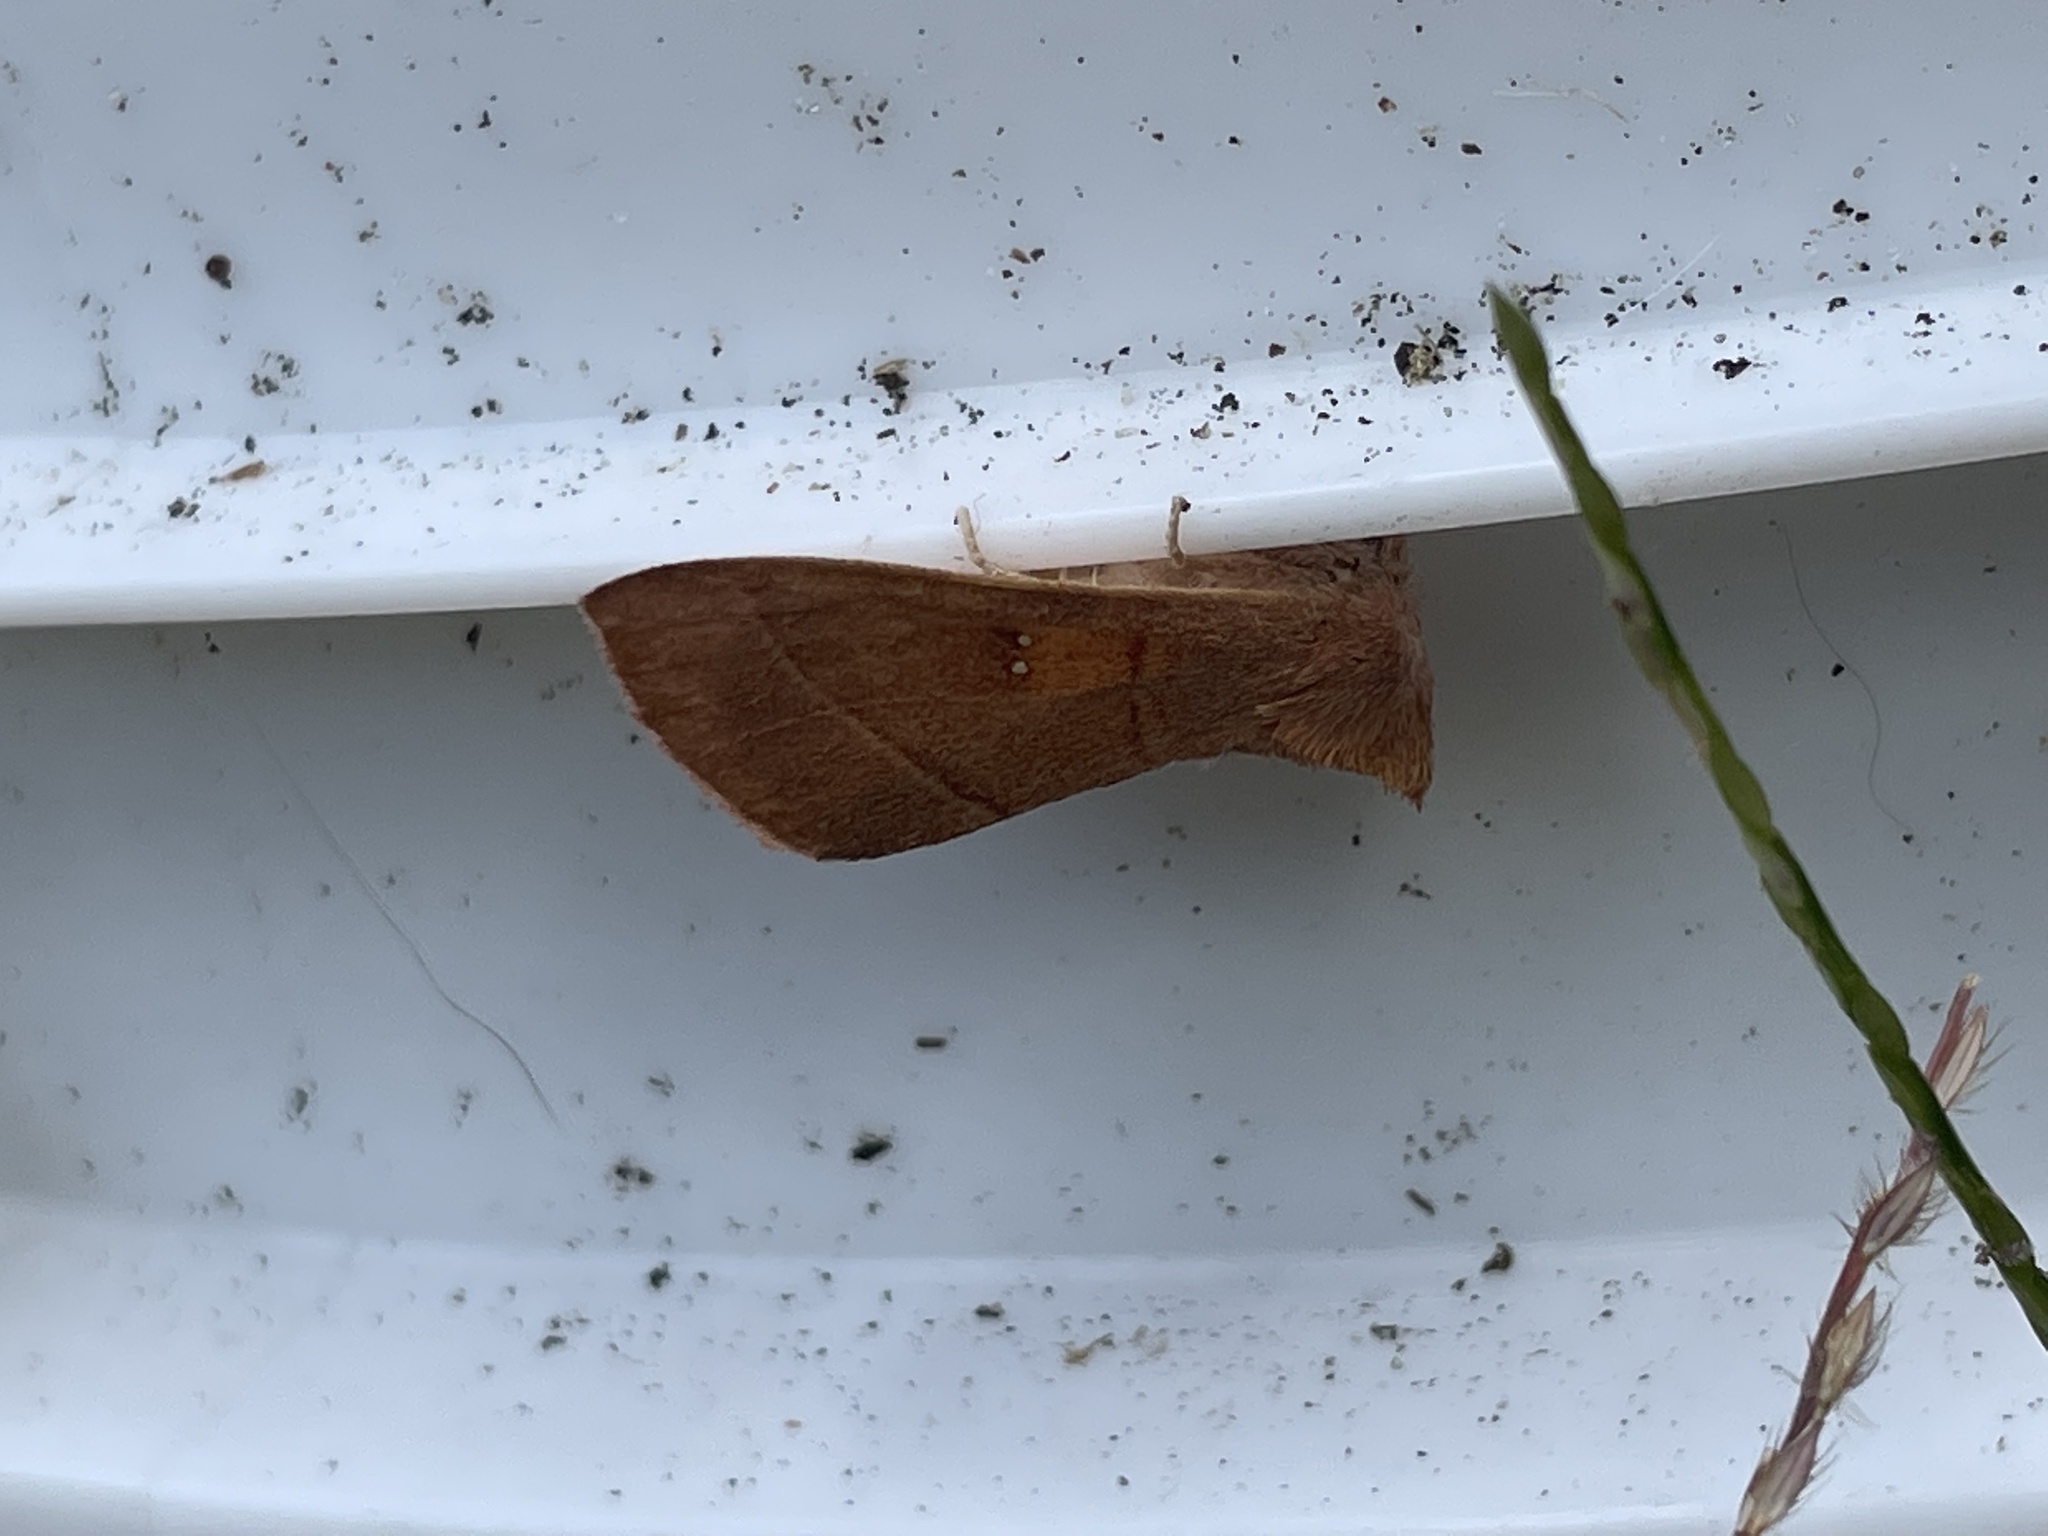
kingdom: Animalia
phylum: Arthropoda
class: Insecta
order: Lepidoptera
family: Notodontidae
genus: Nadata
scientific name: Nadata gibbosa
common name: White-dotted prominent
